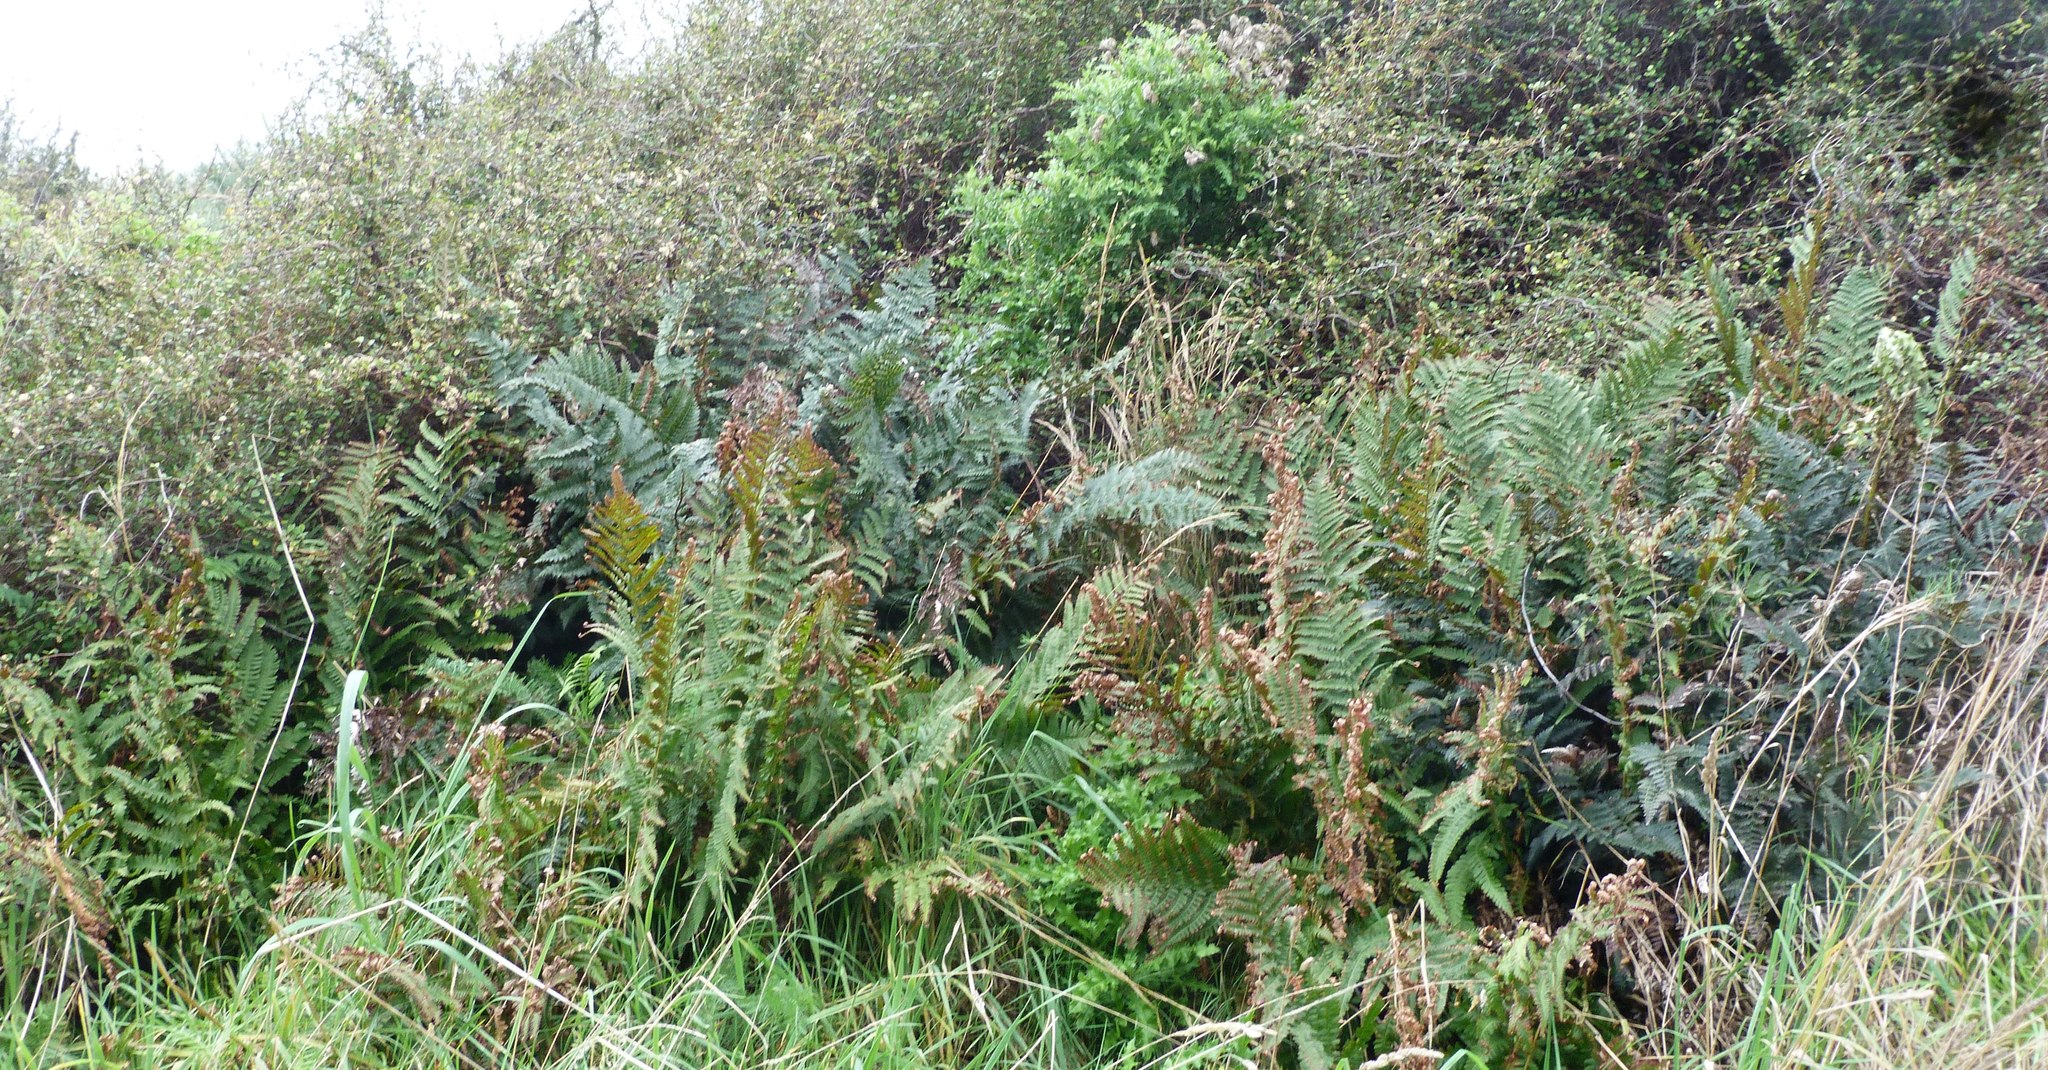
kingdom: Plantae
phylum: Tracheophyta
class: Polypodiopsida
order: Polypodiales
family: Dryopteridaceae
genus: Polystichum
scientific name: Polystichum vestitum
